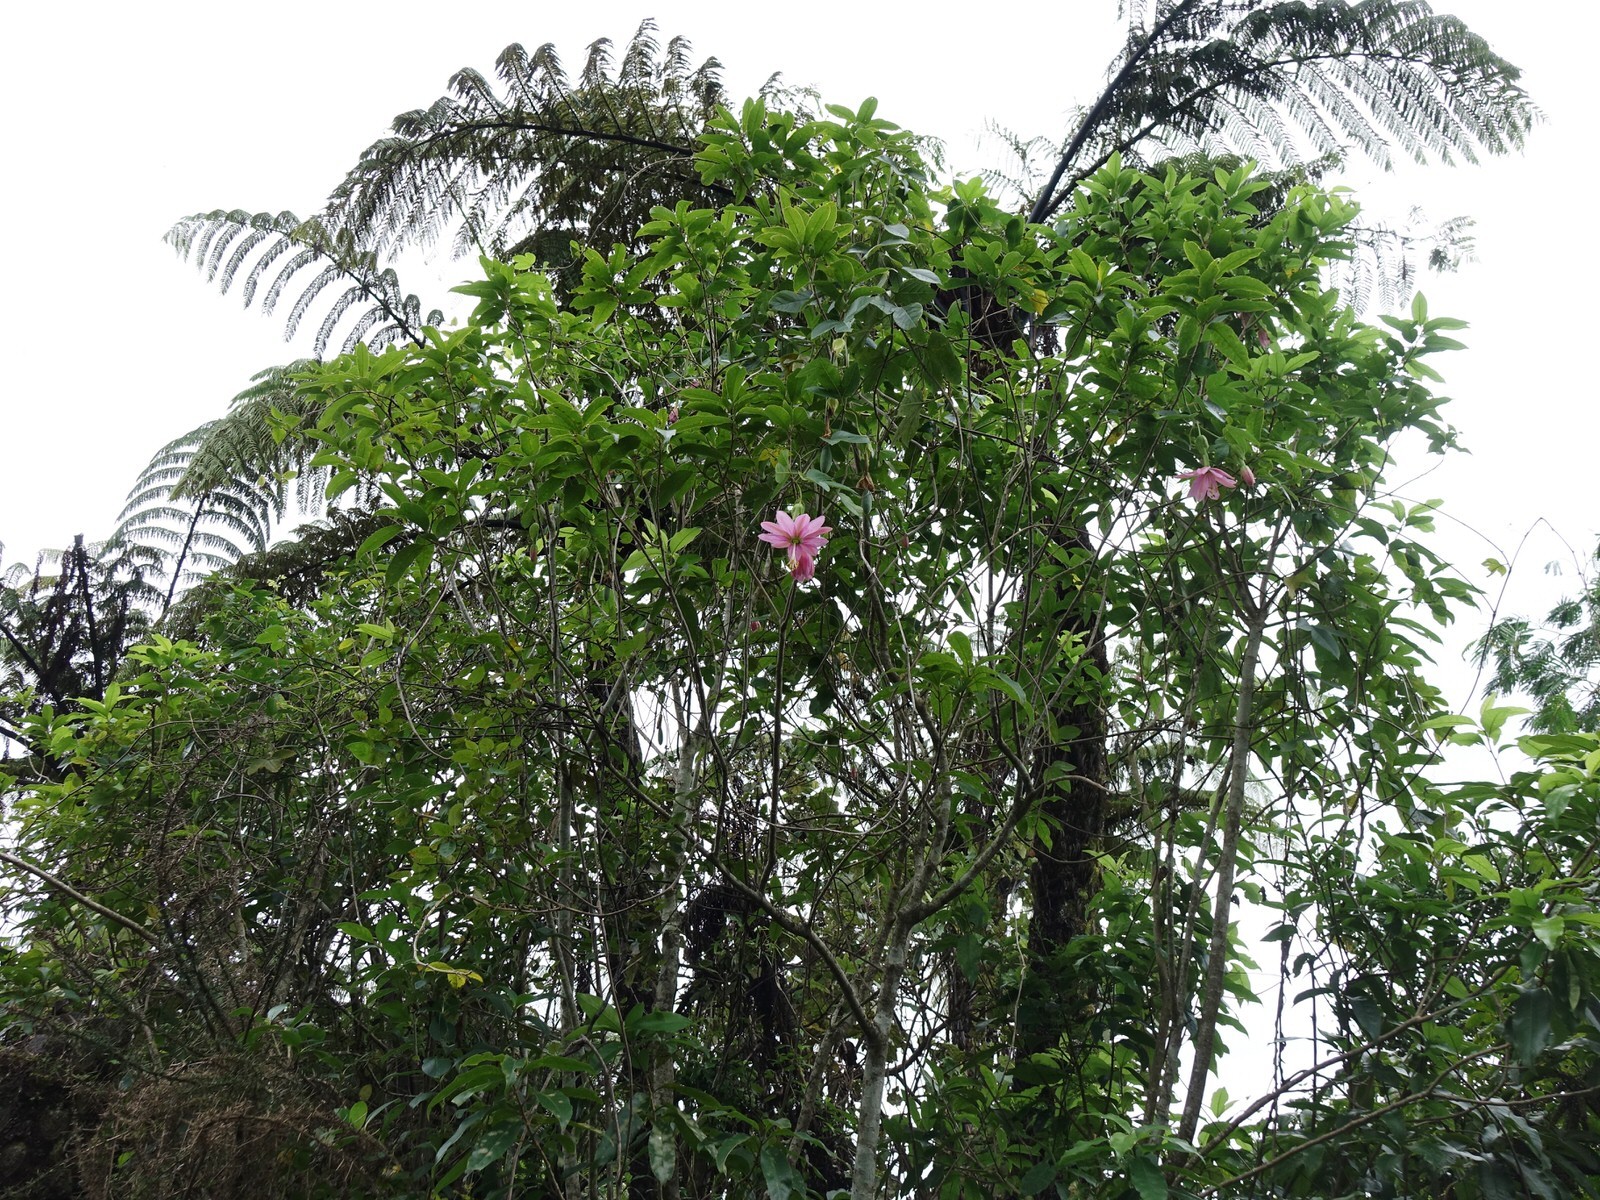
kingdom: Plantae
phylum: Tracheophyta
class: Magnoliopsida
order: Malpighiales
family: Passifloraceae
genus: Passiflora
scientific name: Passiflora tarminiana
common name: Banana poka
